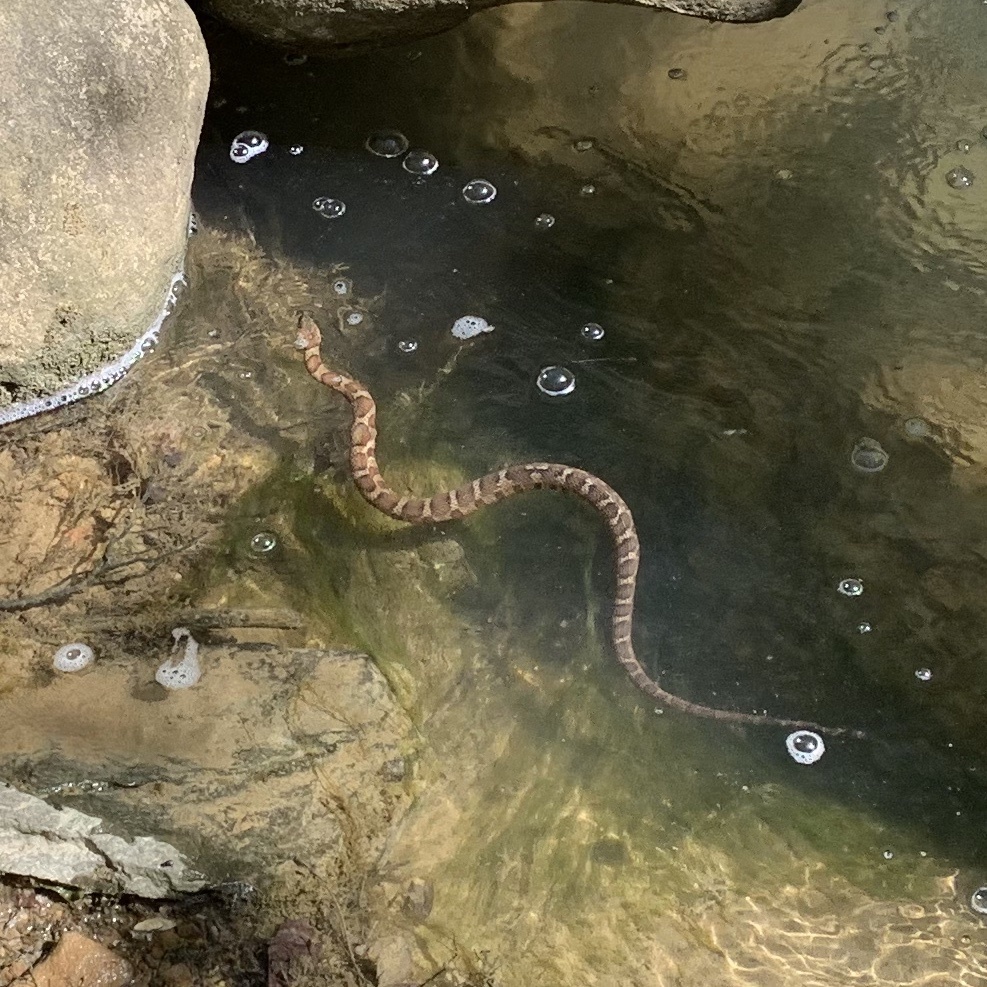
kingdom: Animalia
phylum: Chordata
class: Squamata
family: Colubridae
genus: Nerodia
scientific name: Nerodia sipedon
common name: Northern water snake
